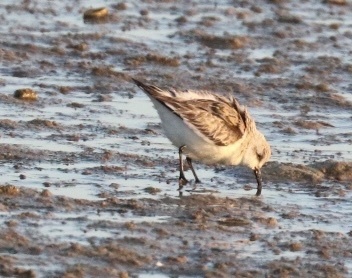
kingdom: Animalia
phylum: Chordata
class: Aves
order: Charadriiformes
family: Scolopacidae
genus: Calidris
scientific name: Calidris alba
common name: Sanderling
